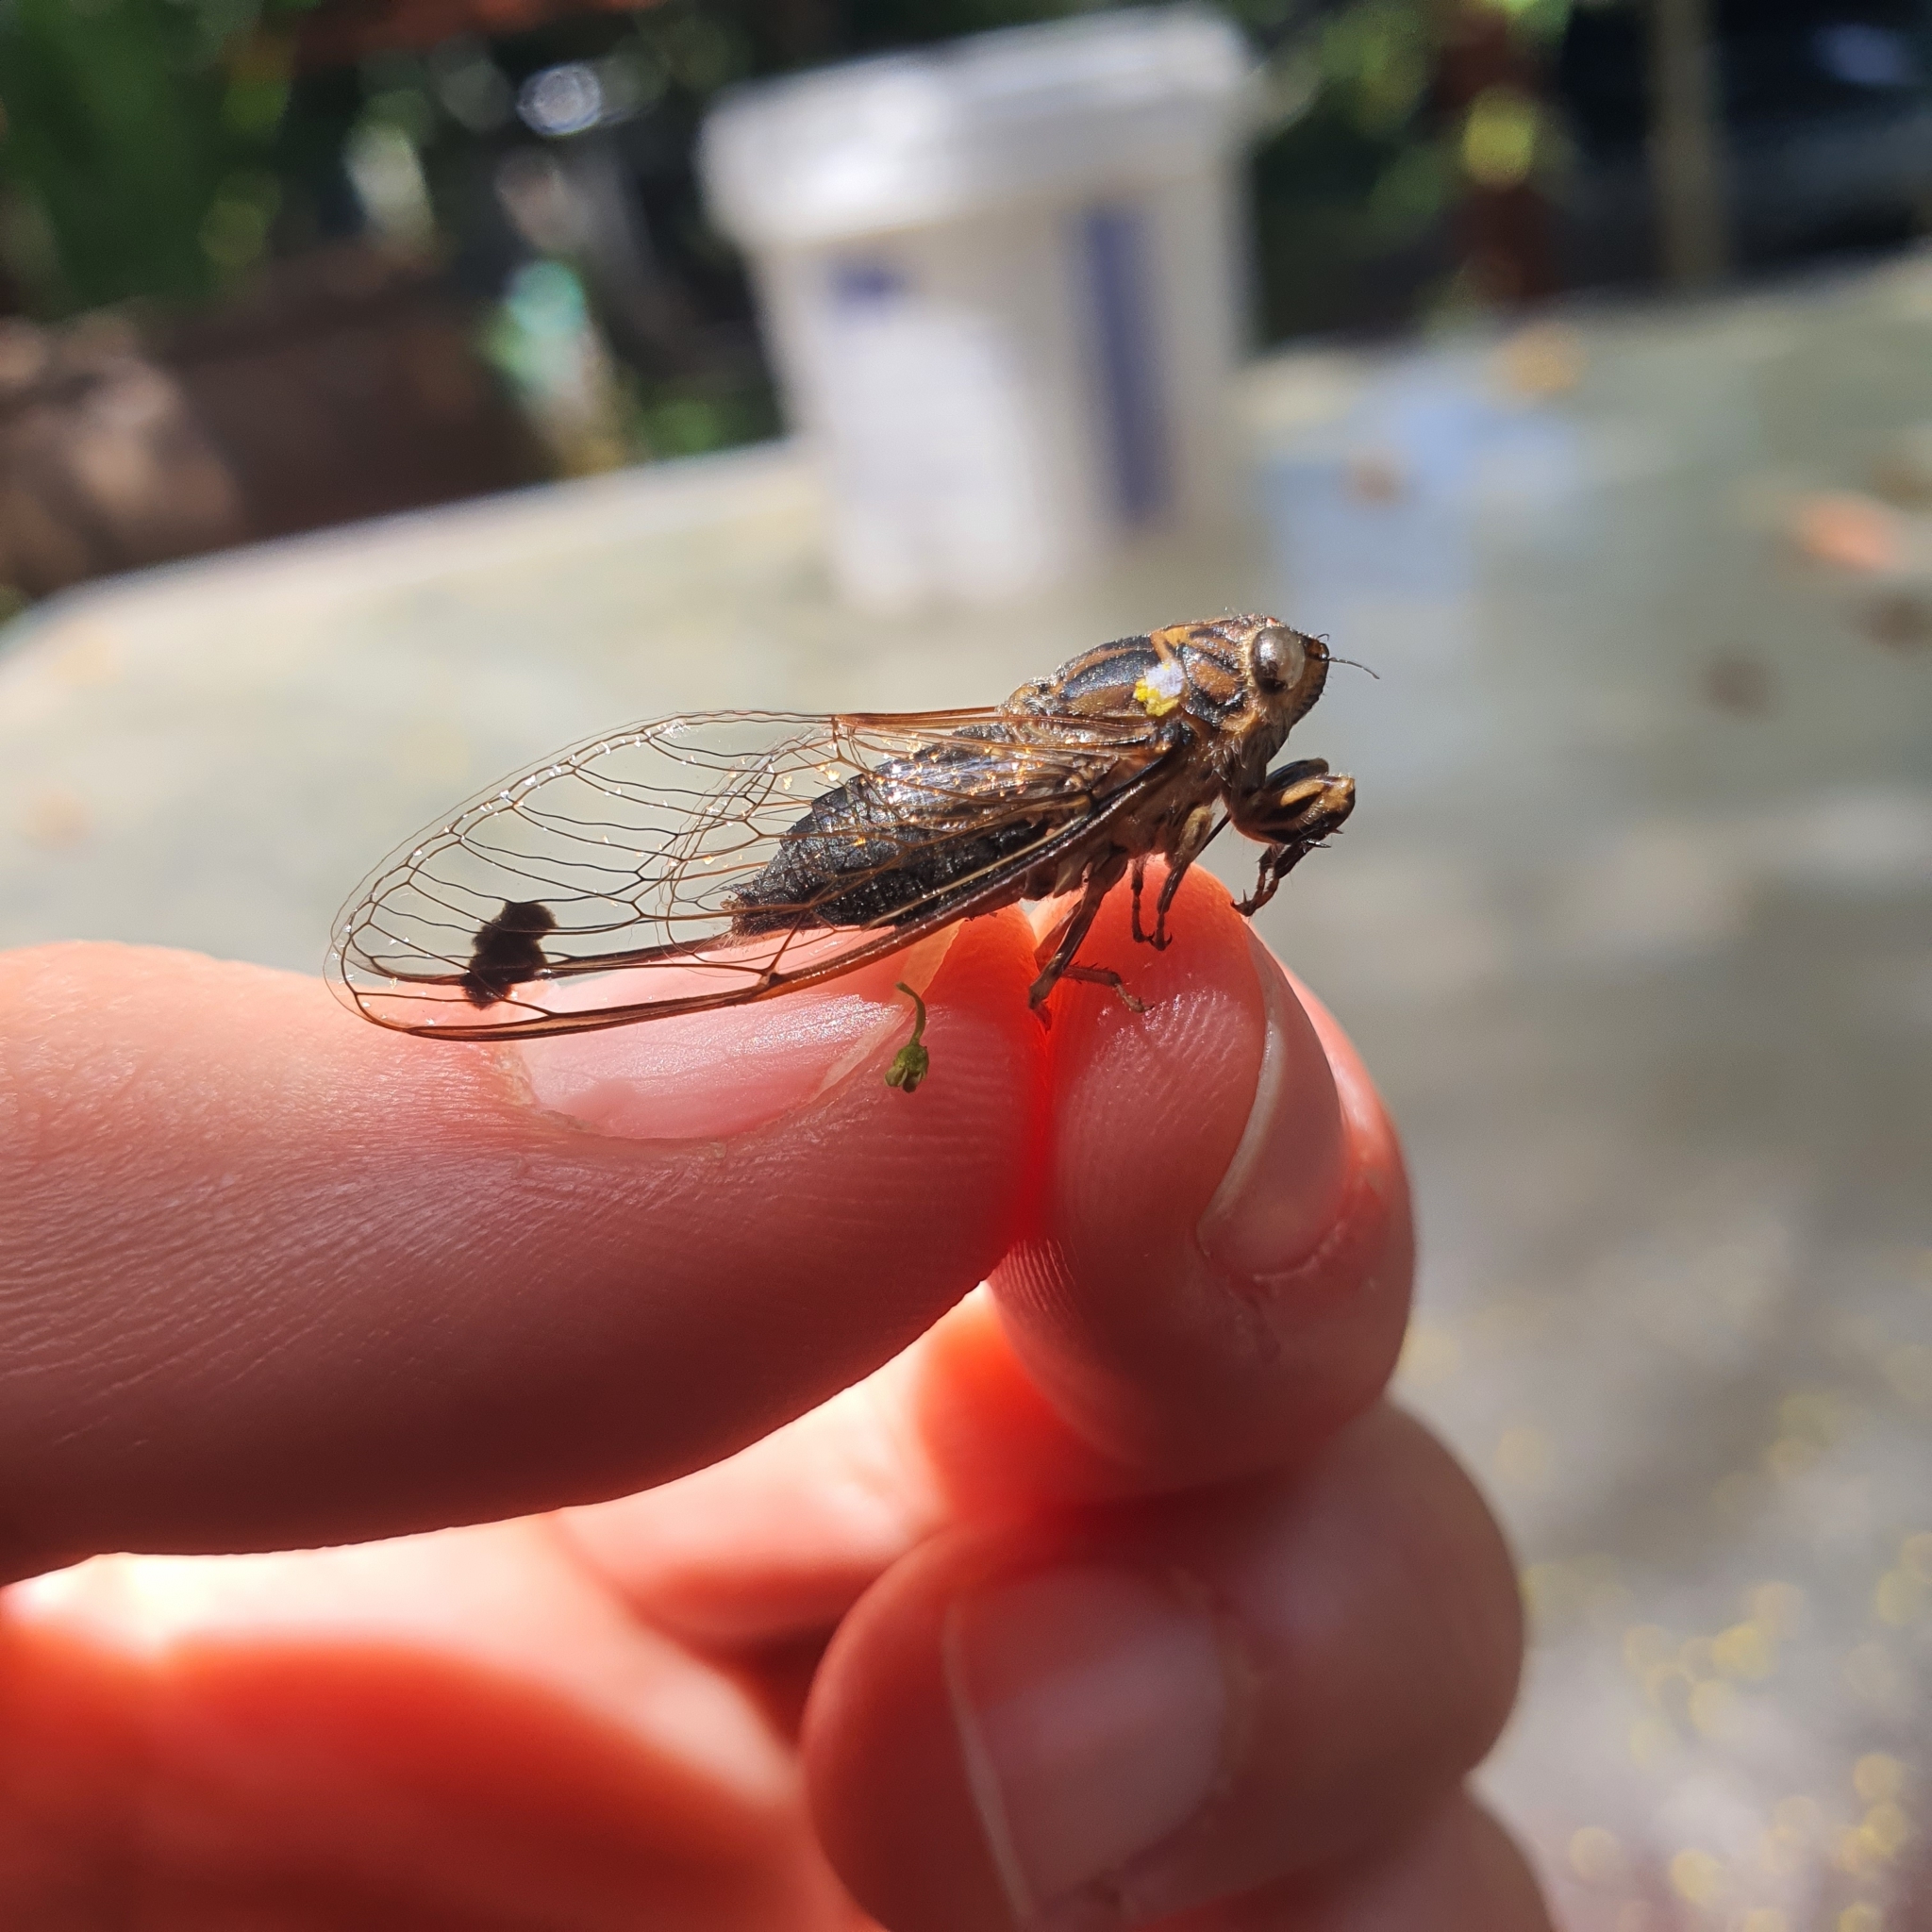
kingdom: Animalia
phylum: Arthropoda
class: Insecta
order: Hemiptera
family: Cicadidae
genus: Galanga
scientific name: Galanga labeculata
